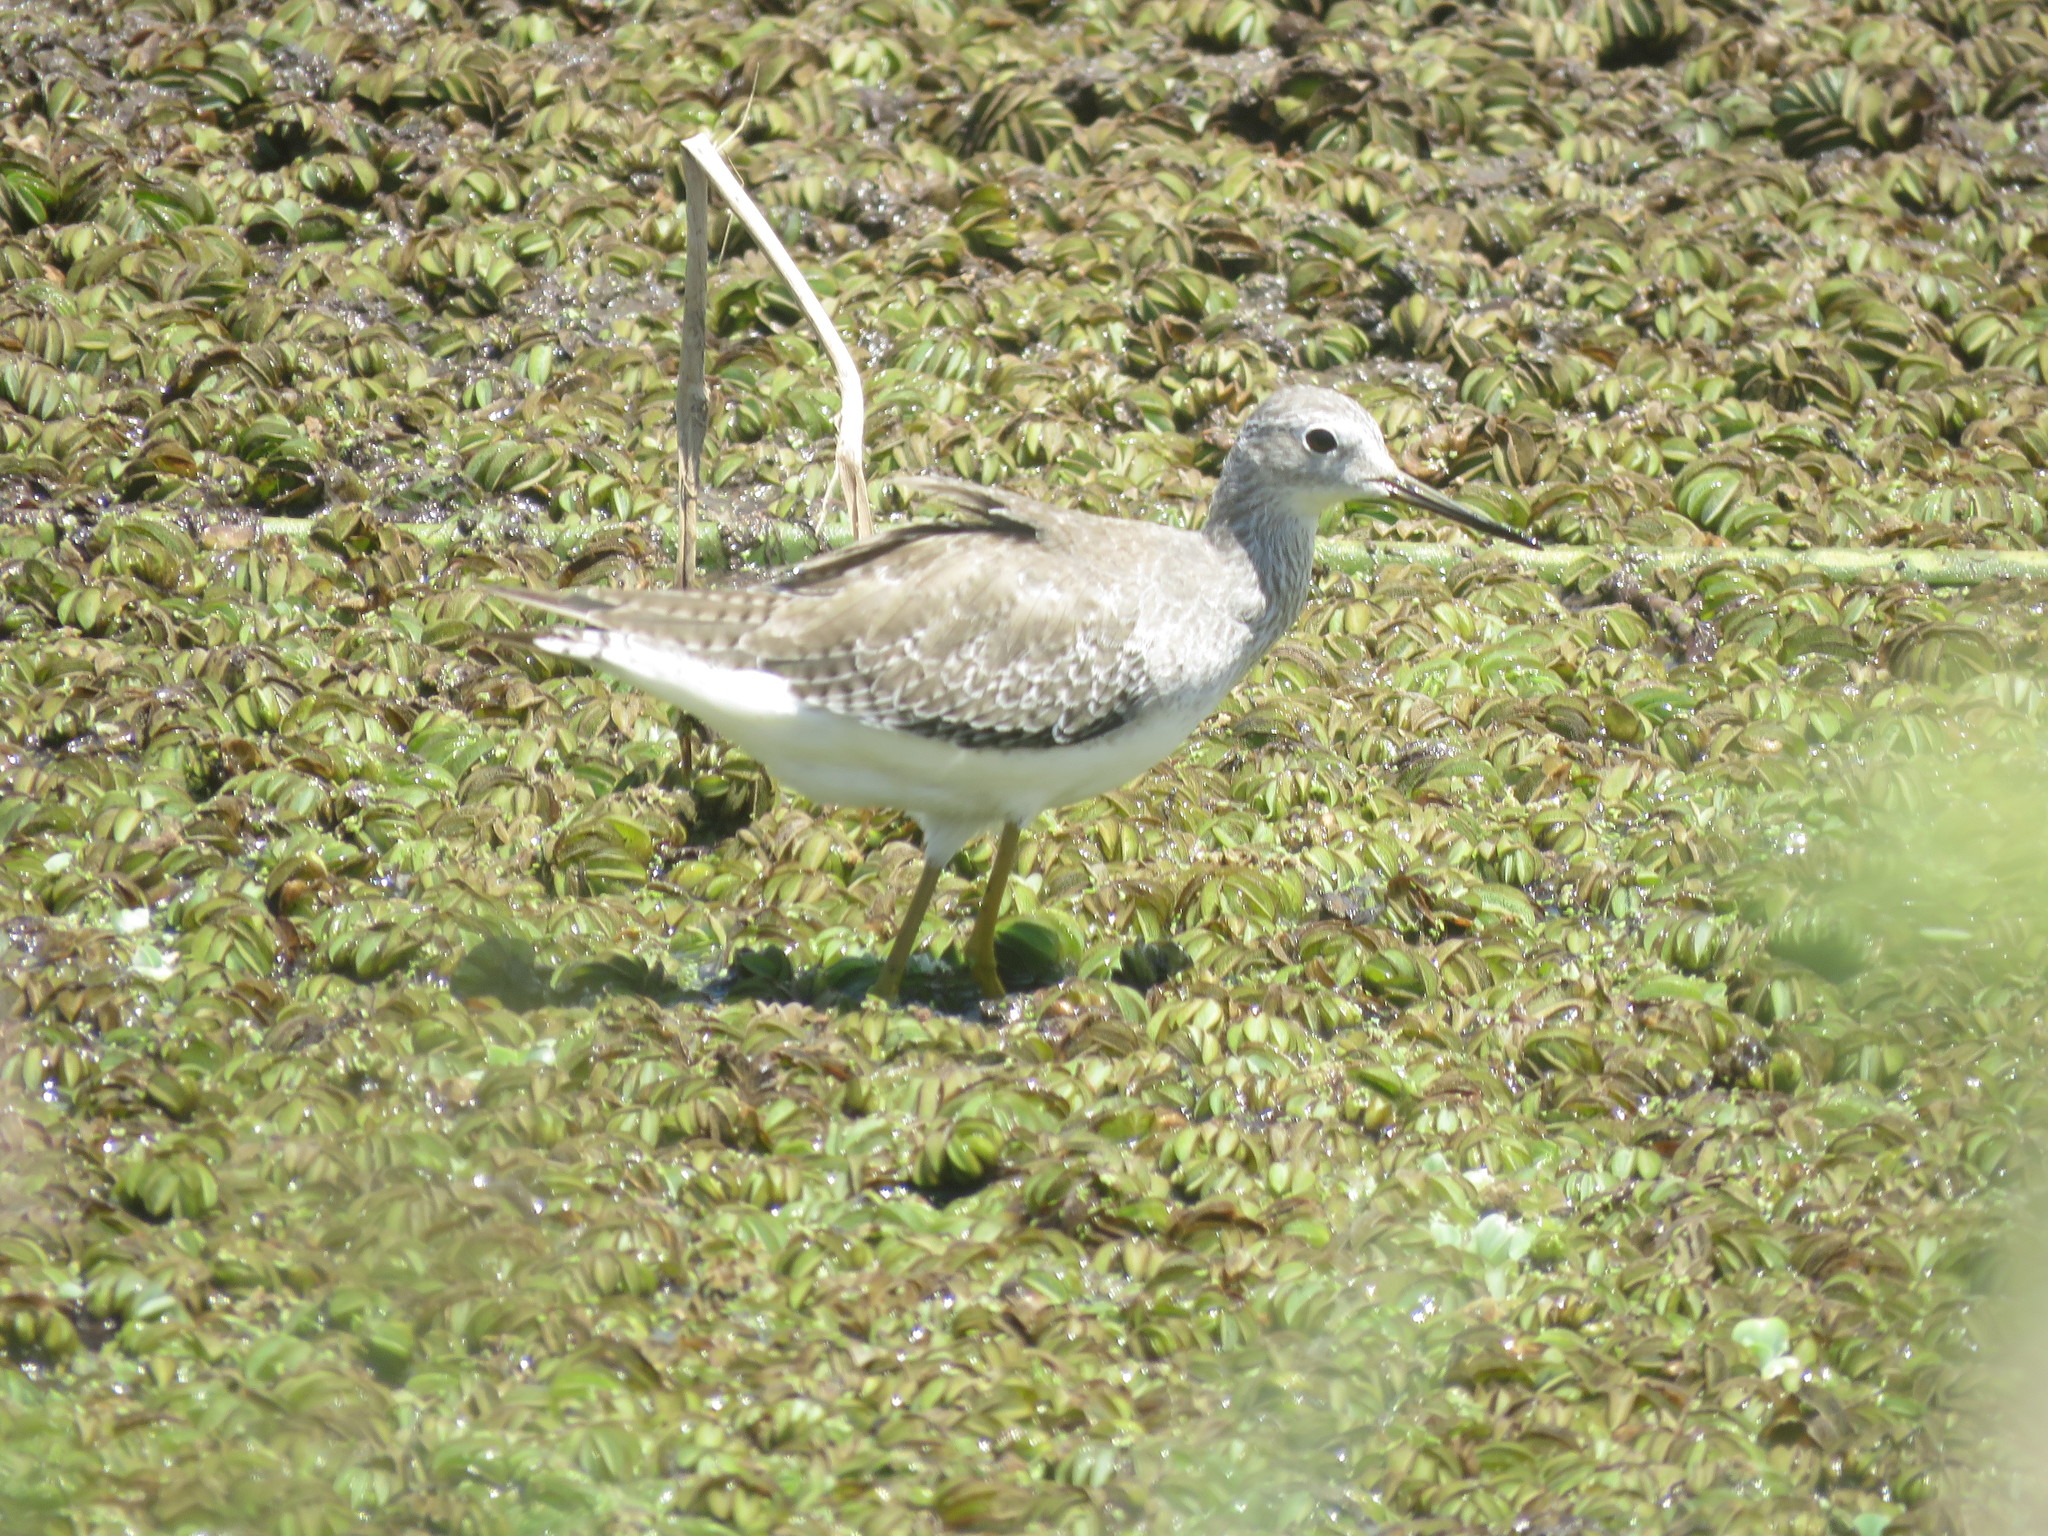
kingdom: Animalia
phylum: Chordata
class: Aves
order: Charadriiformes
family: Scolopacidae
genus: Tringa
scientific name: Tringa flavipes
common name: Lesser yellowlegs
